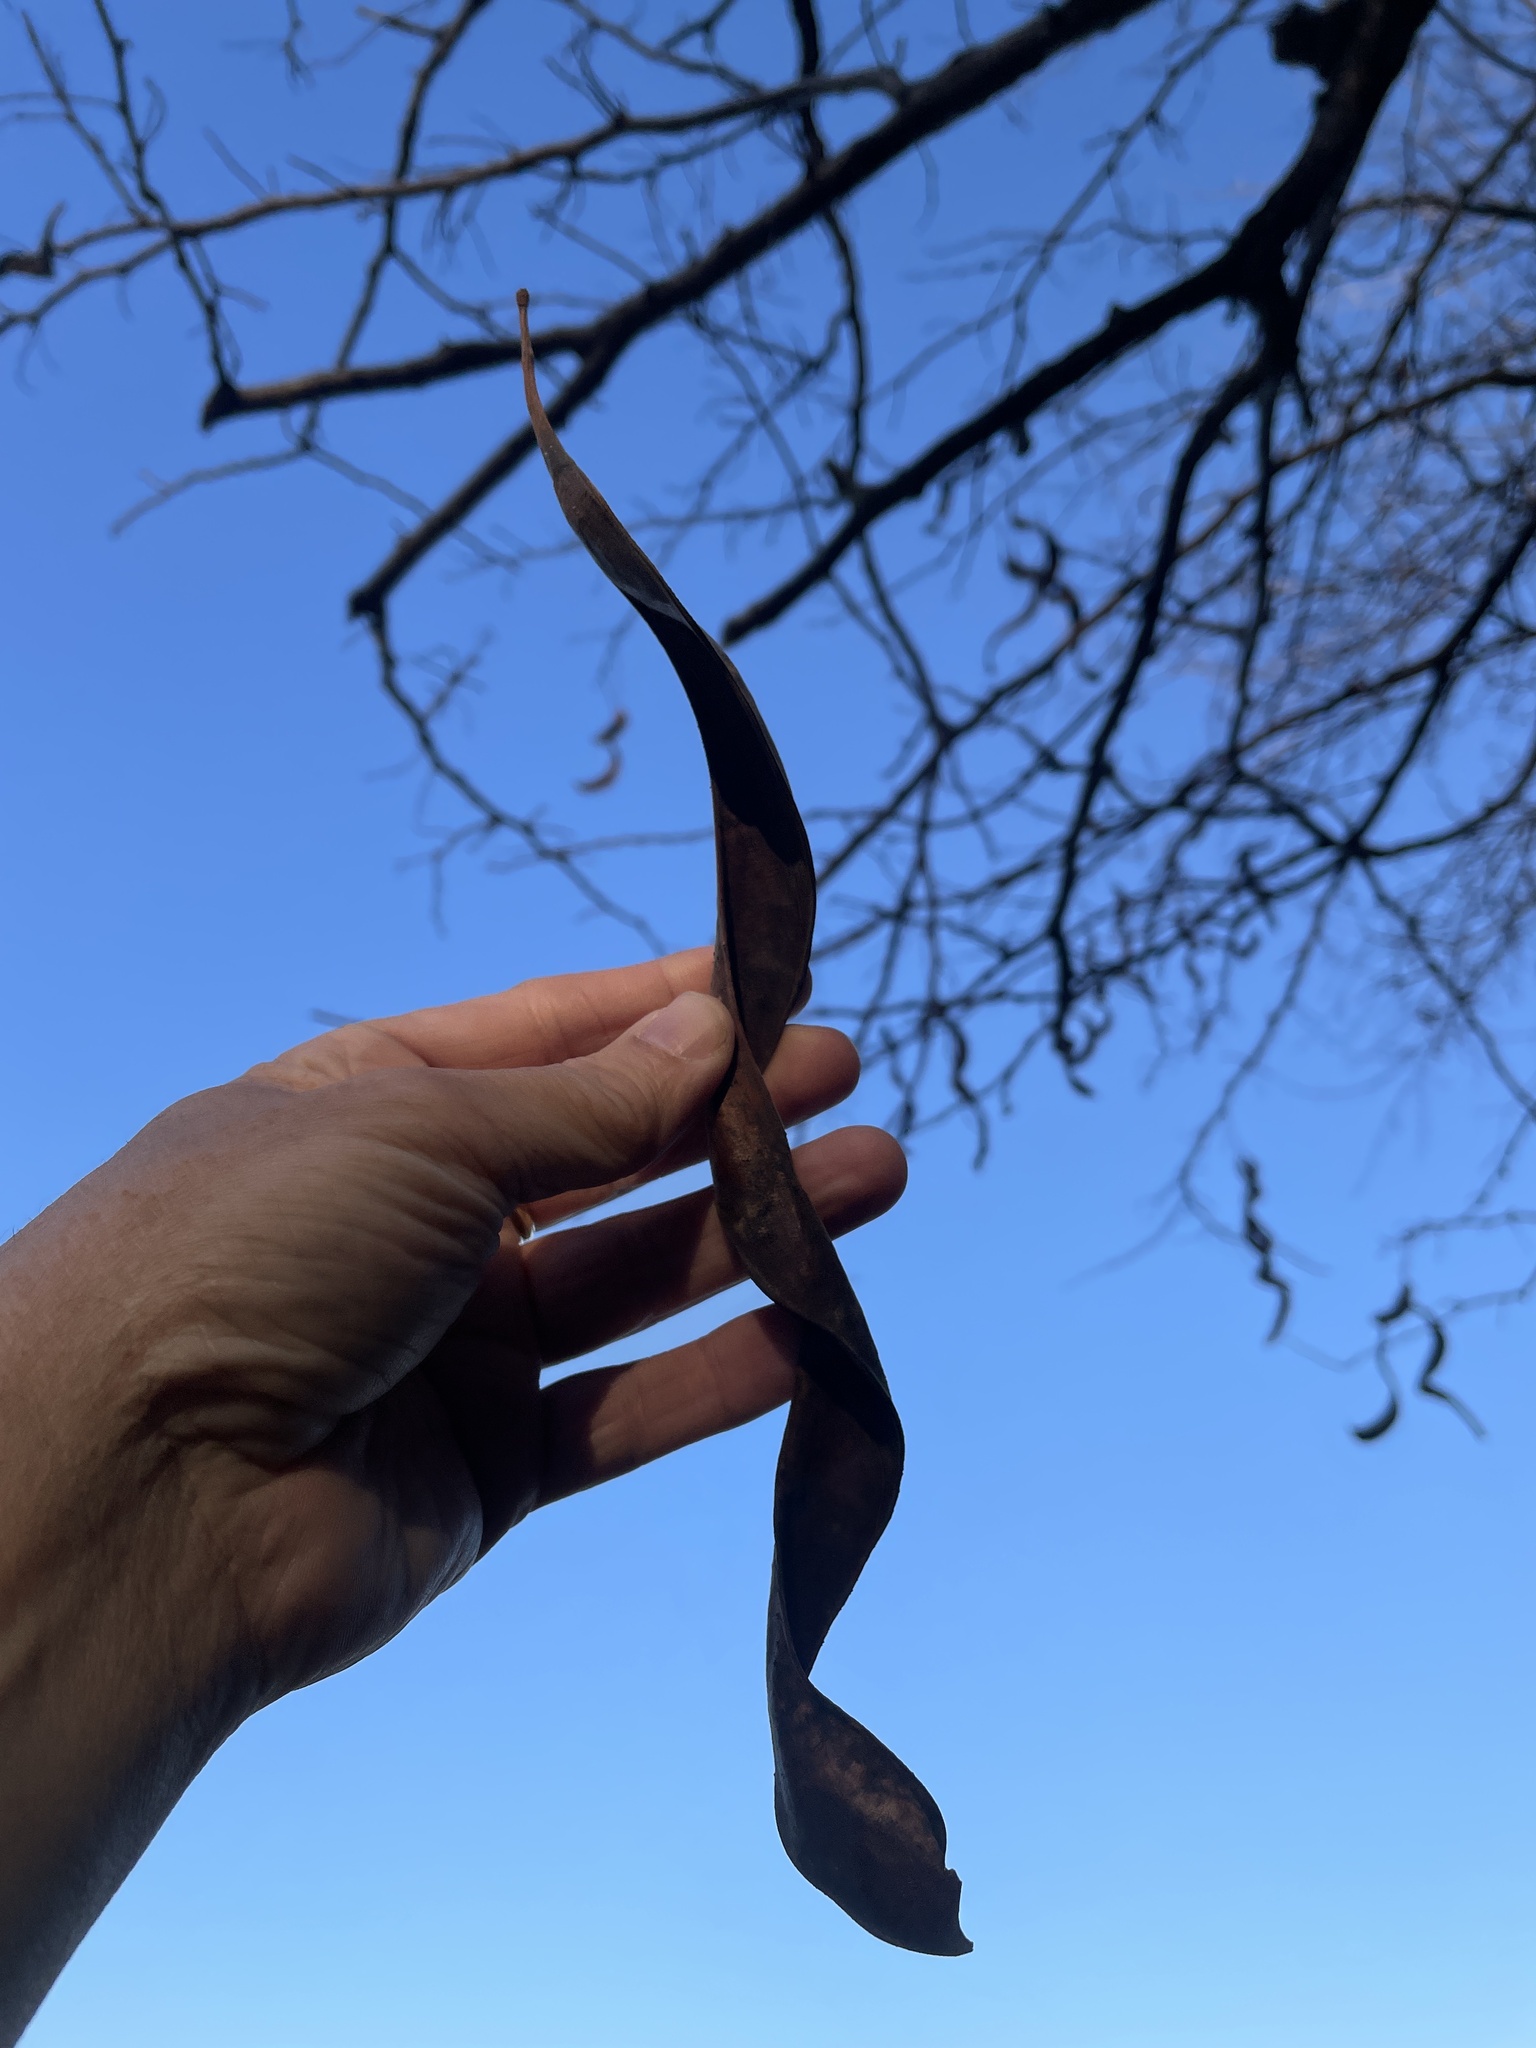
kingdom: Plantae
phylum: Tracheophyta
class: Magnoliopsida
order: Fabales
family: Fabaceae
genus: Gleditsia
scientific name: Gleditsia triacanthos
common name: Common honeylocust
